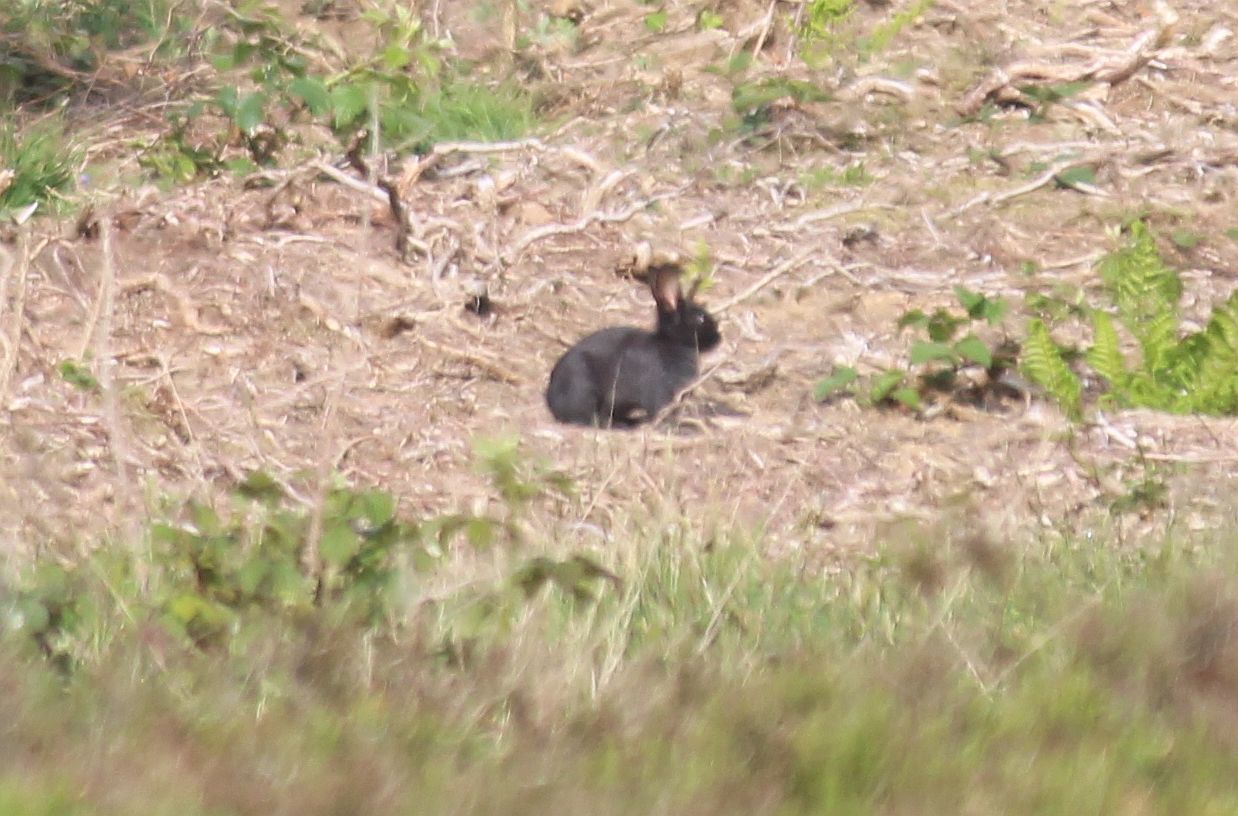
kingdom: Animalia
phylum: Chordata
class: Mammalia
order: Lagomorpha
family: Leporidae
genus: Oryctolagus
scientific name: Oryctolagus cuniculus
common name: European rabbit
